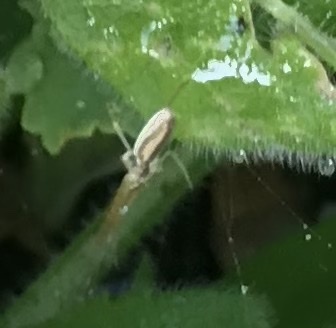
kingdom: Animalia
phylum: Arthropoda
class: Arachnida
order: Araneae
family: Tetragnathidae
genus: Tetragnatha
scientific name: Tetragnatha
